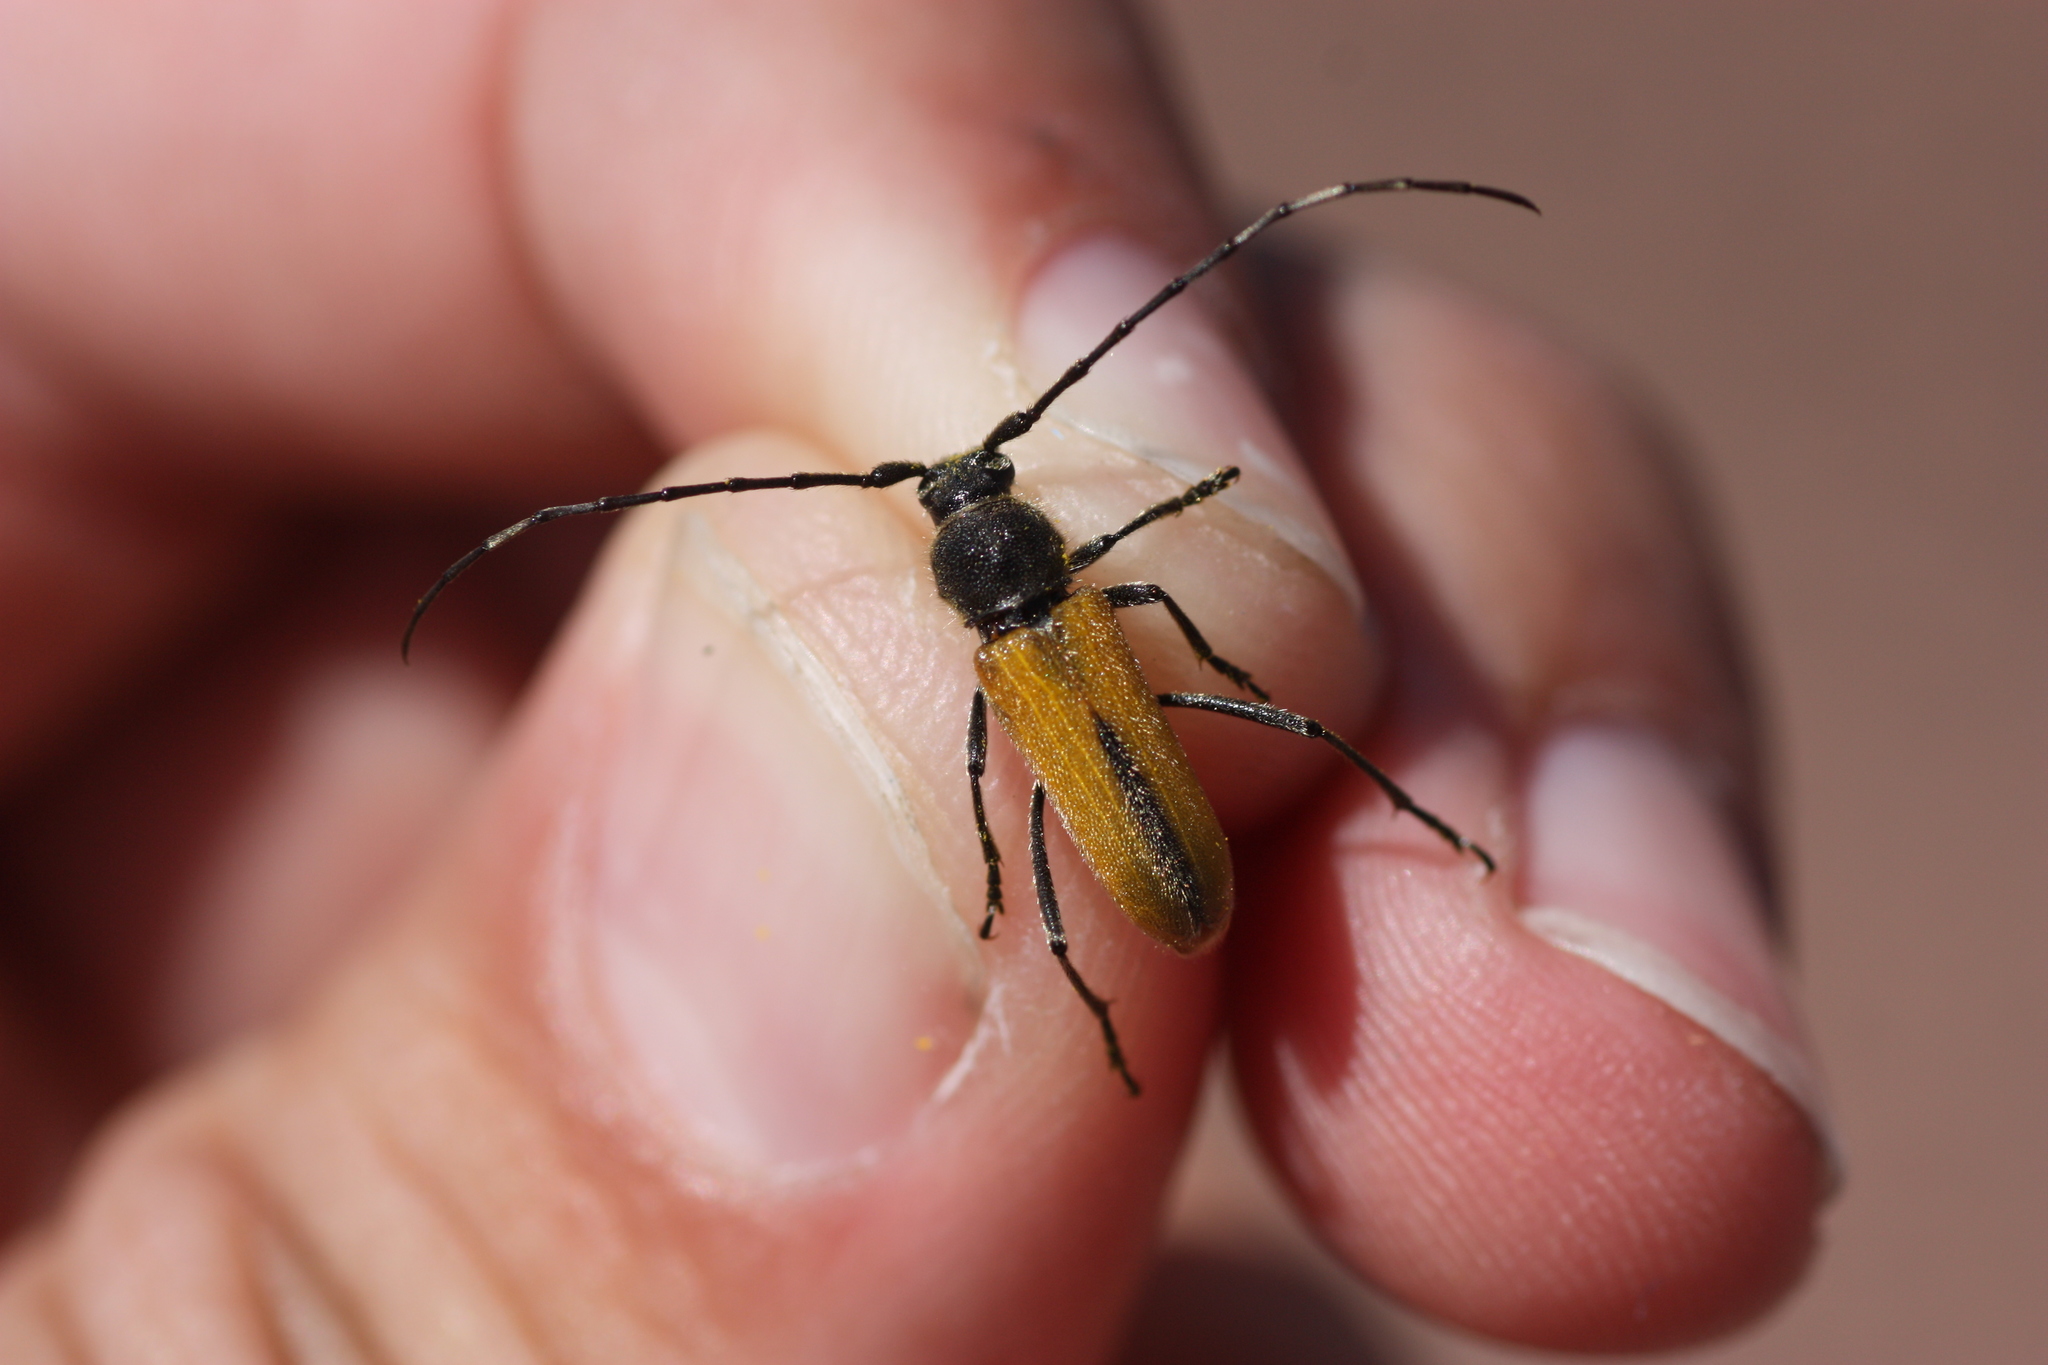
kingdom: Animalia
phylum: Arthropoda
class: Insecta
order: Coleoptera
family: Cerambycidae
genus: Crossidius
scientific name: Crossidius pulchellus
